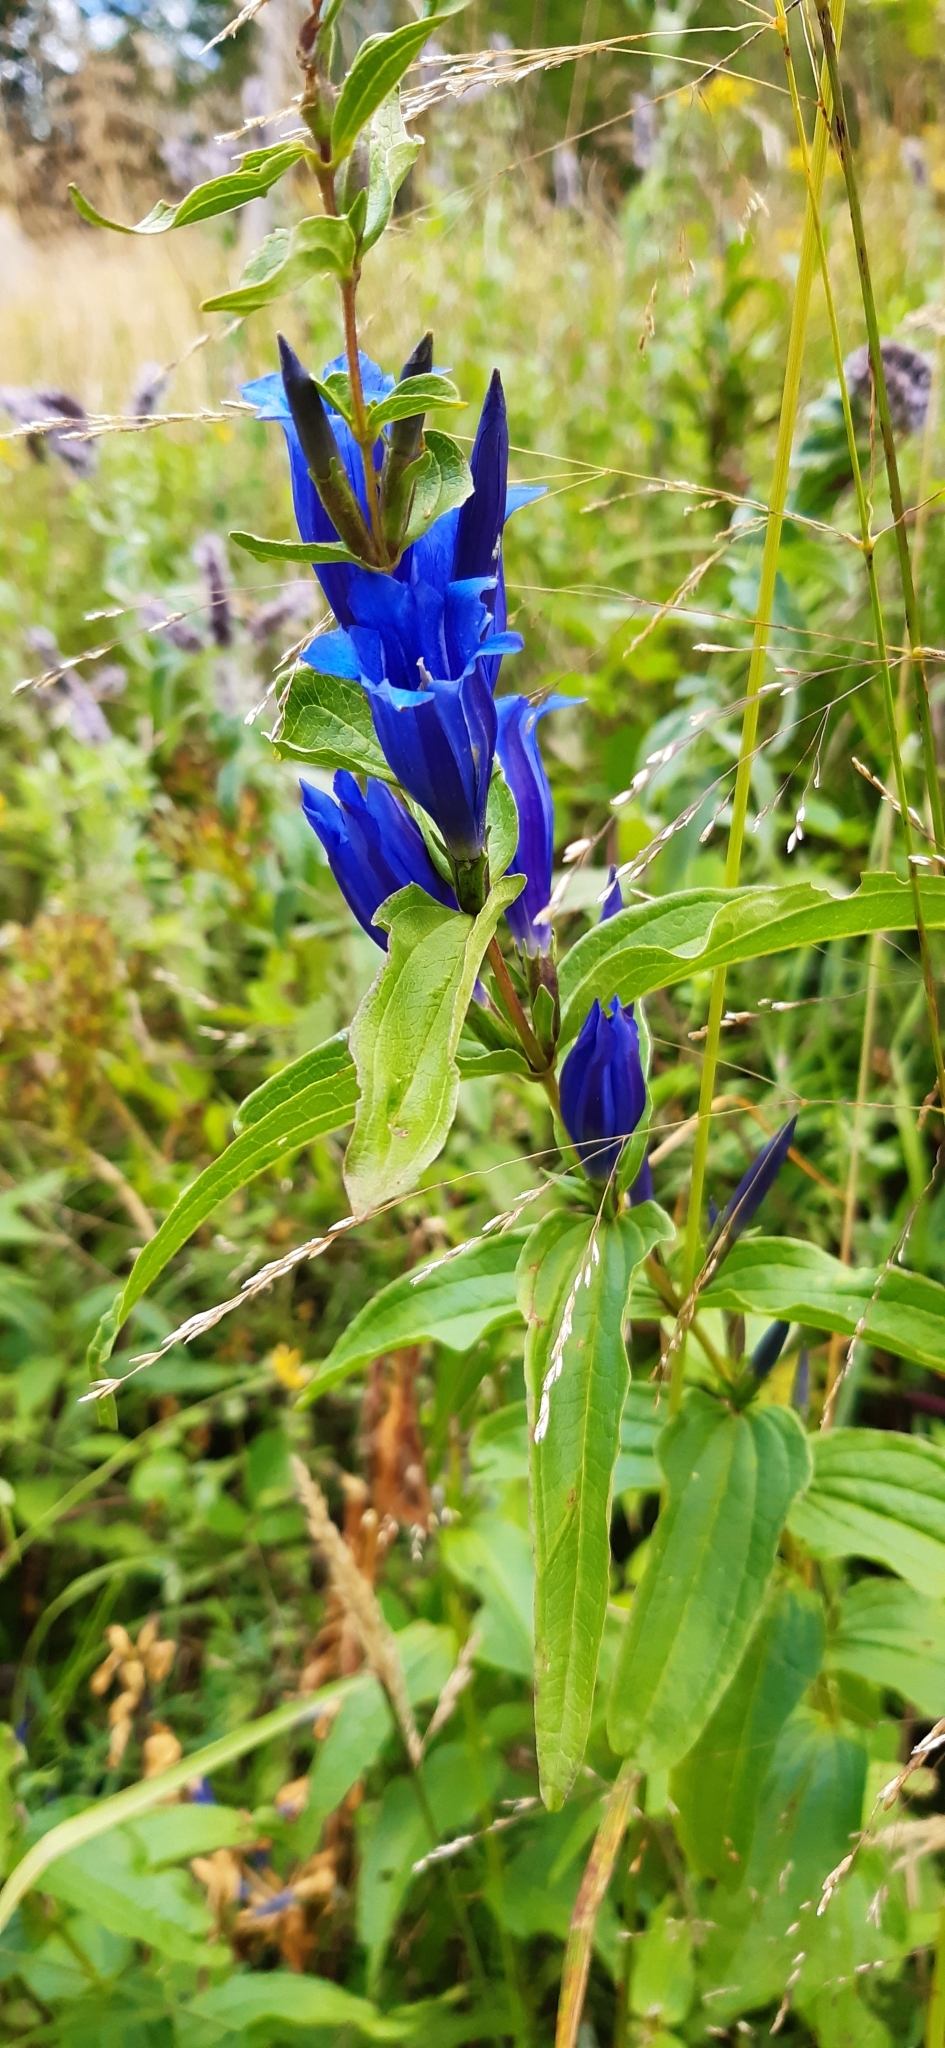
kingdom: Plantae
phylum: Tracheophyta
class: Magnoliopsida
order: Gentianales
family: Gentianaceae
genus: Gentiana
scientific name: Gentiana asclepiadea
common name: Willow gentian
